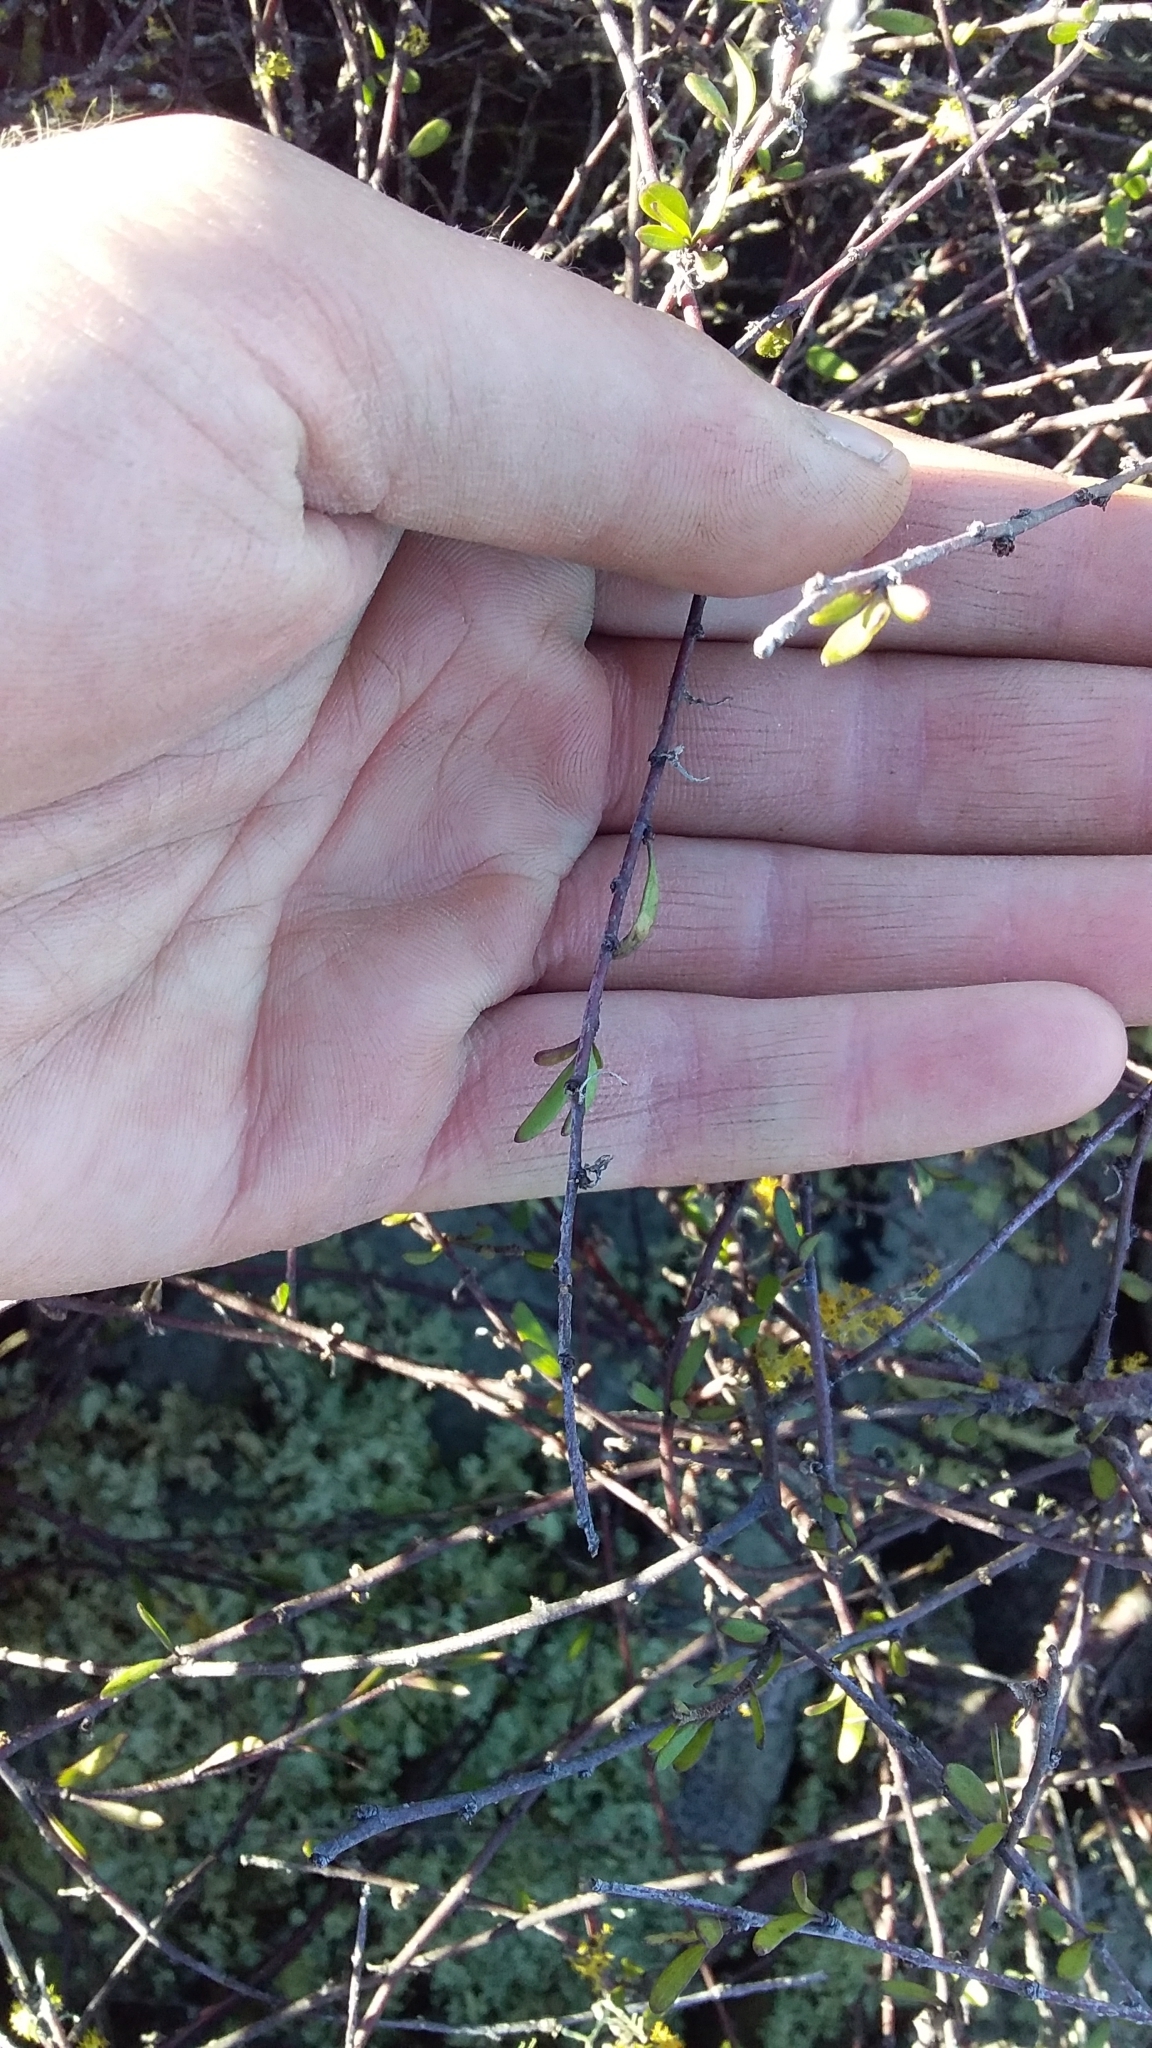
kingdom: Plantae
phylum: Tracheophyta
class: Magnoliopsida
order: Malvales
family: Malvaceae
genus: Plagianthus
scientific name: Plagianthus divaricatus
